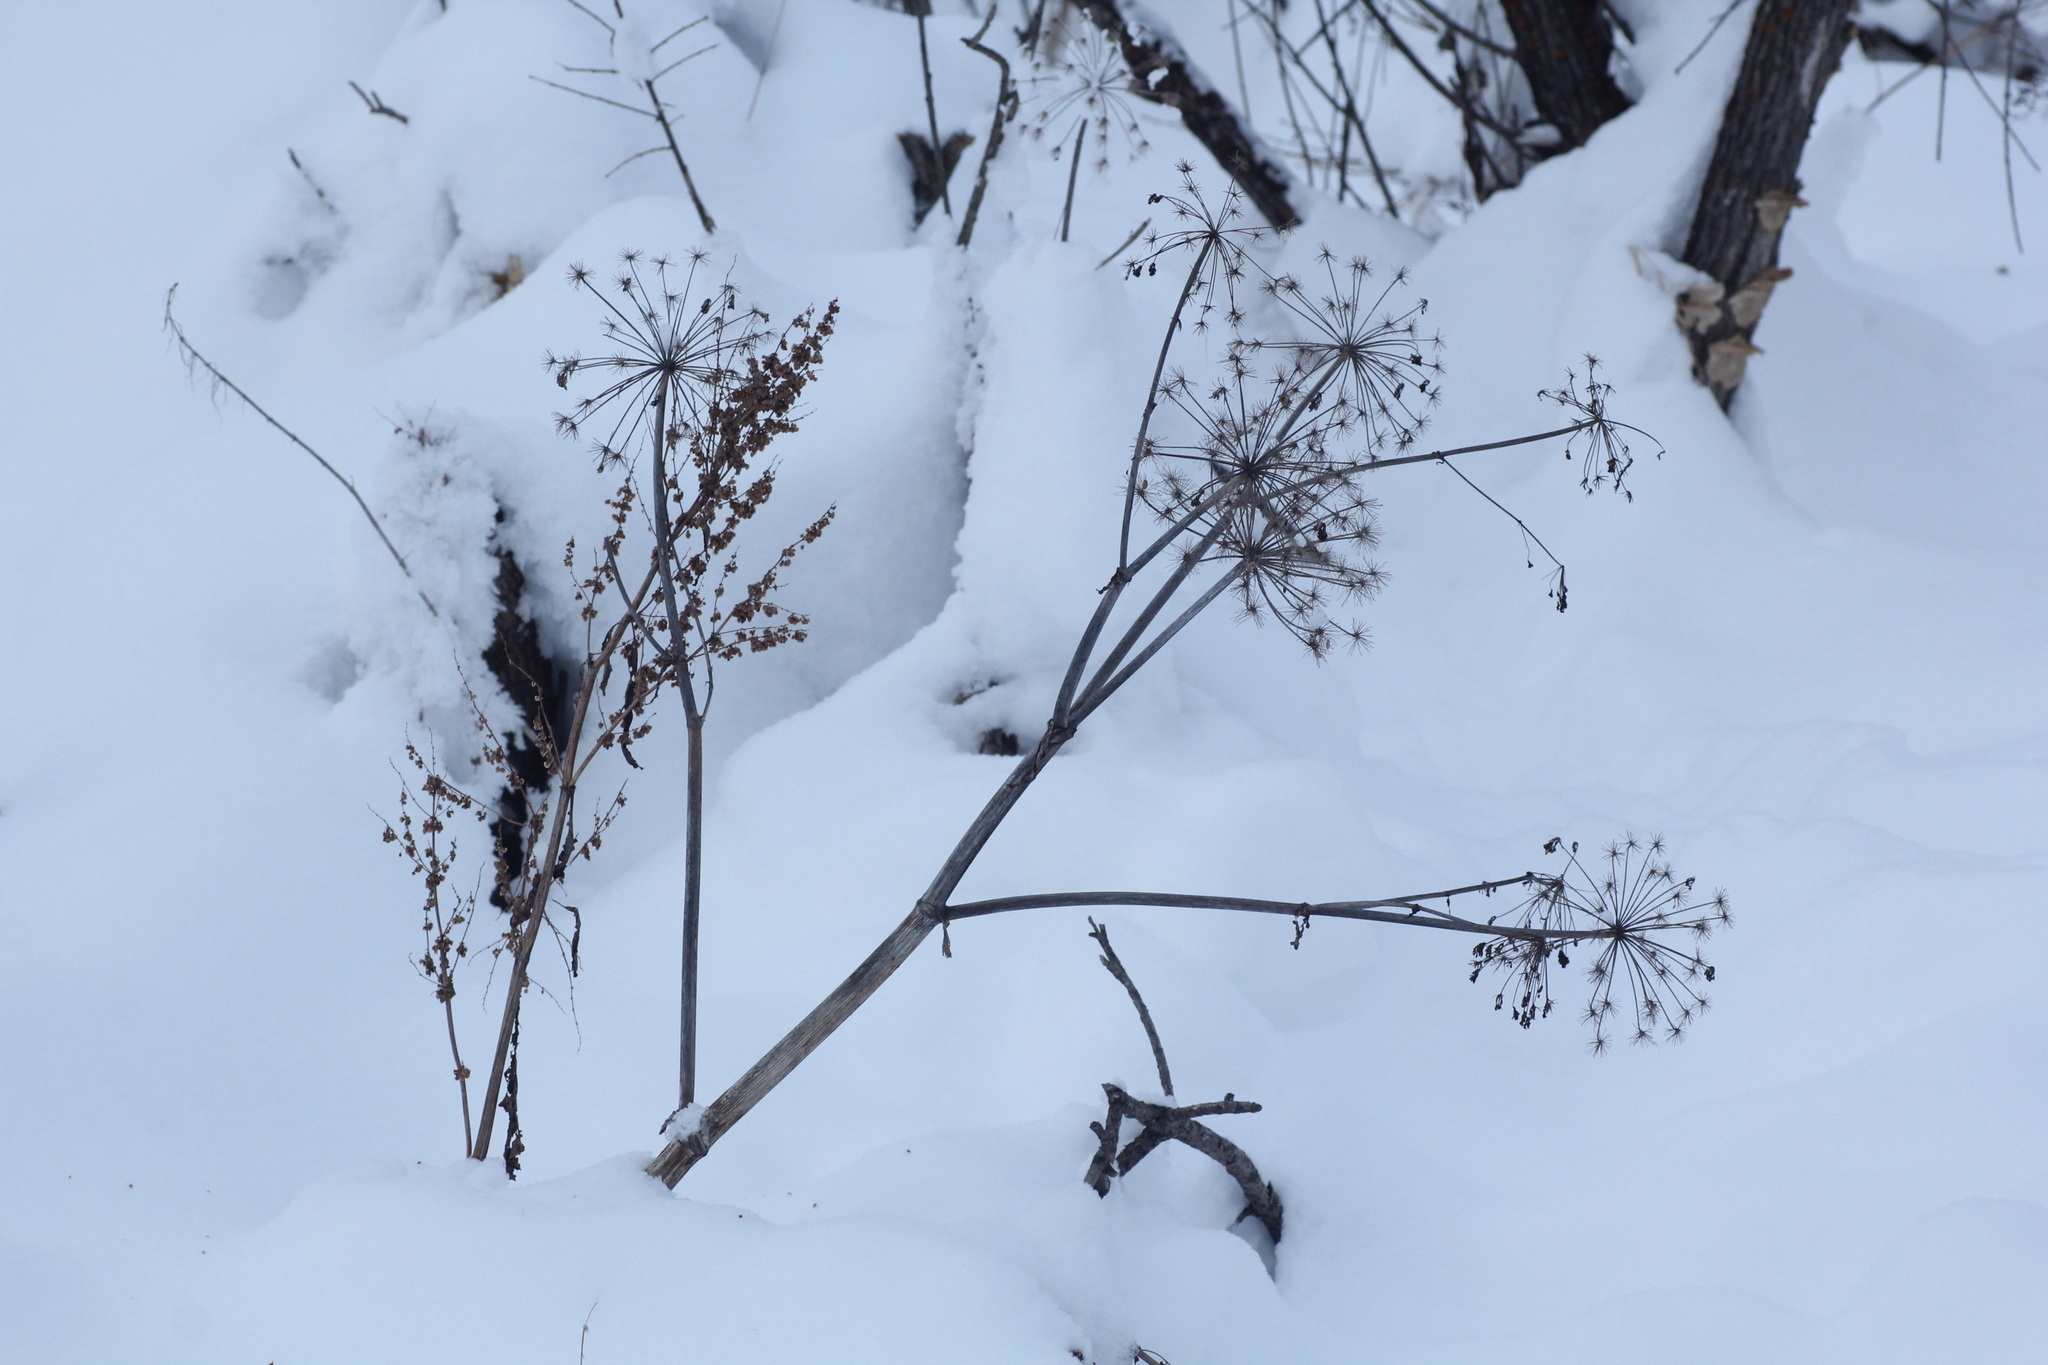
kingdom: Plantae
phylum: Tracheophyta
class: Magnoliopsida
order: Apiales
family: Apiaceae
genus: Angelica
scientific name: Angelica decurrens
